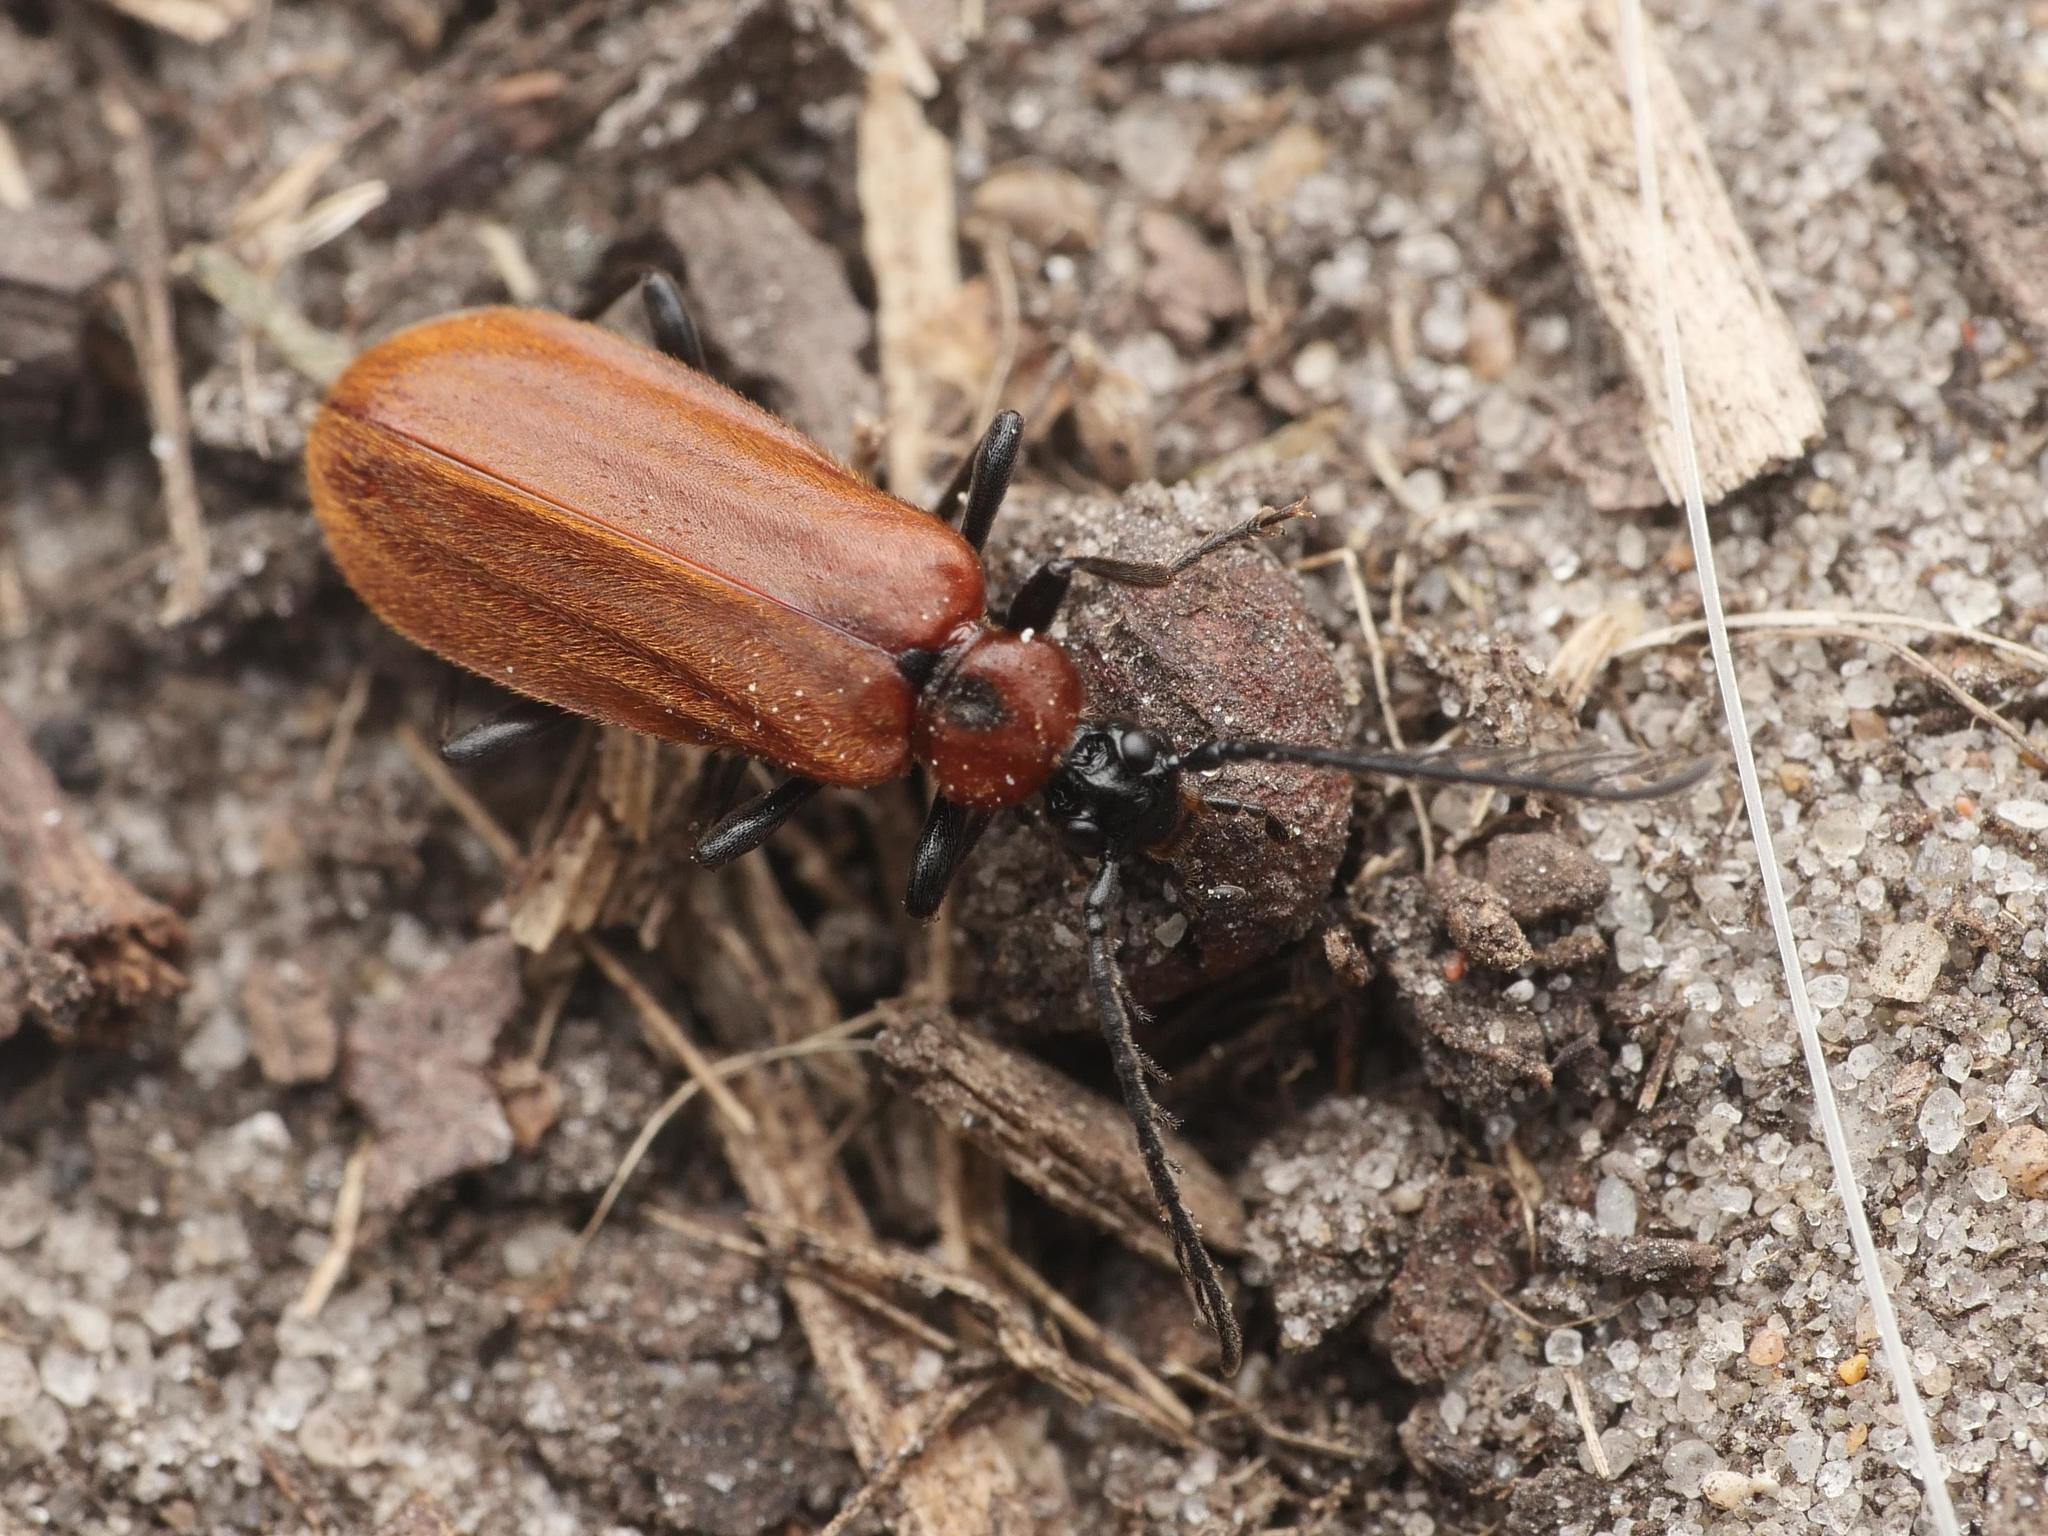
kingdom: Animalia
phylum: Arthropoda
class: Insecta
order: Coleoptera
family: Pyrochroidae
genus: Schizotus
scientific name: Schizotus pectinicornis
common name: Scarce cardinal beetle
